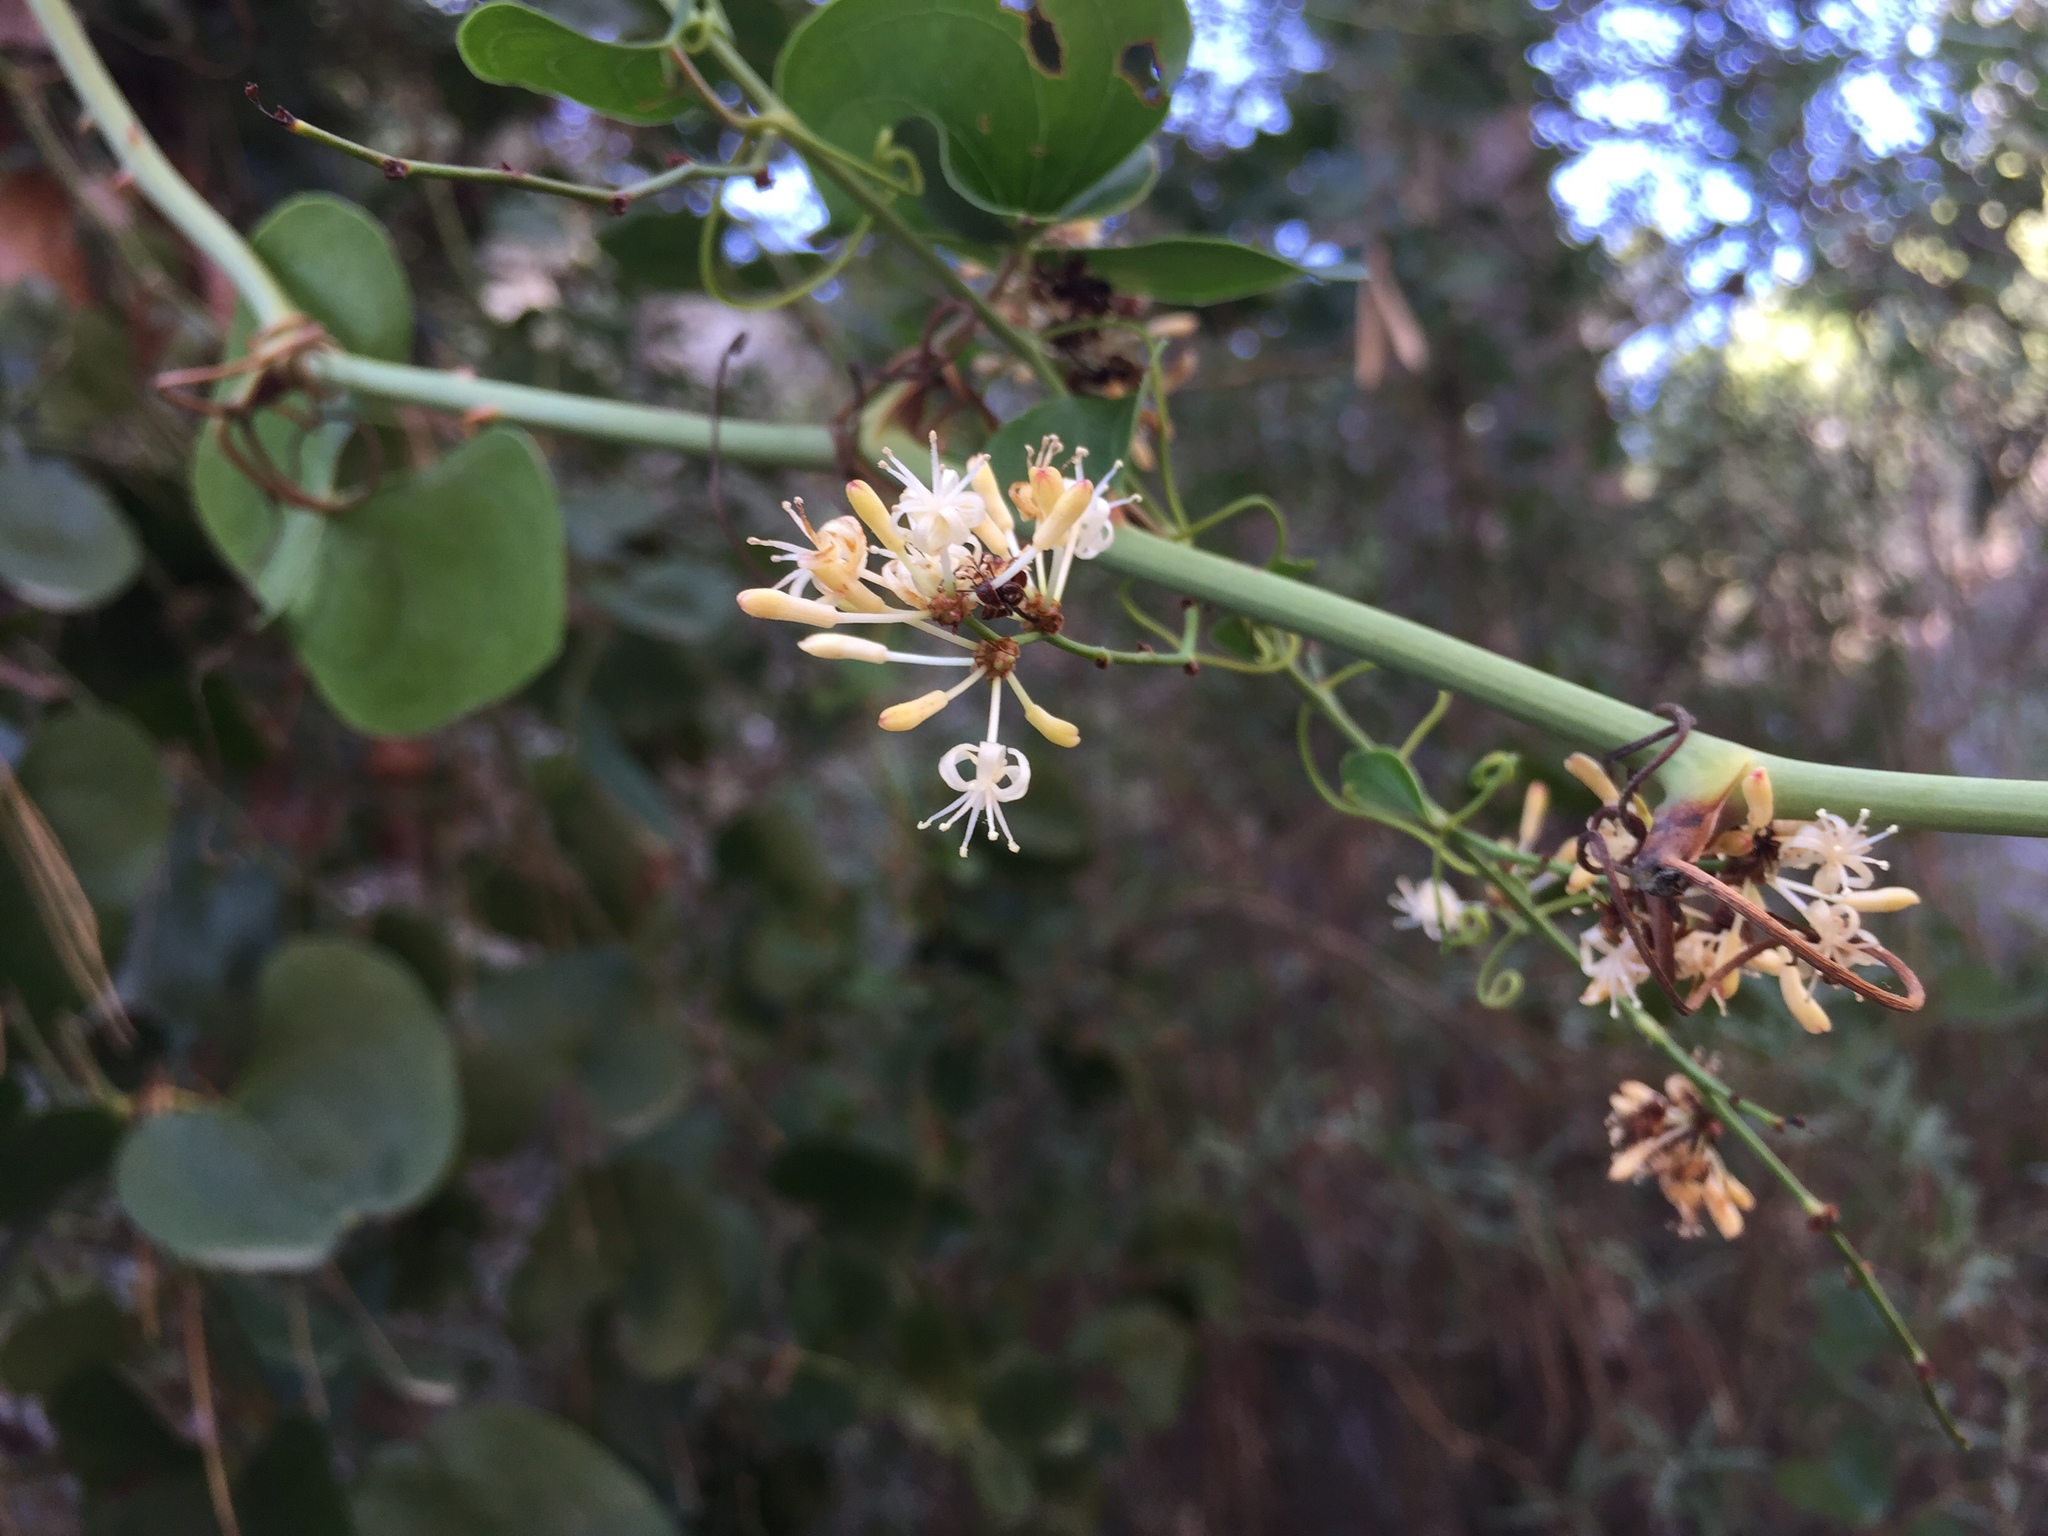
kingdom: Plantae
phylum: Tracheophyta
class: Liliopsida
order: Liliales
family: Smilacaceae
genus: Smilax
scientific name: Smilax aspera
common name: Common smilax
